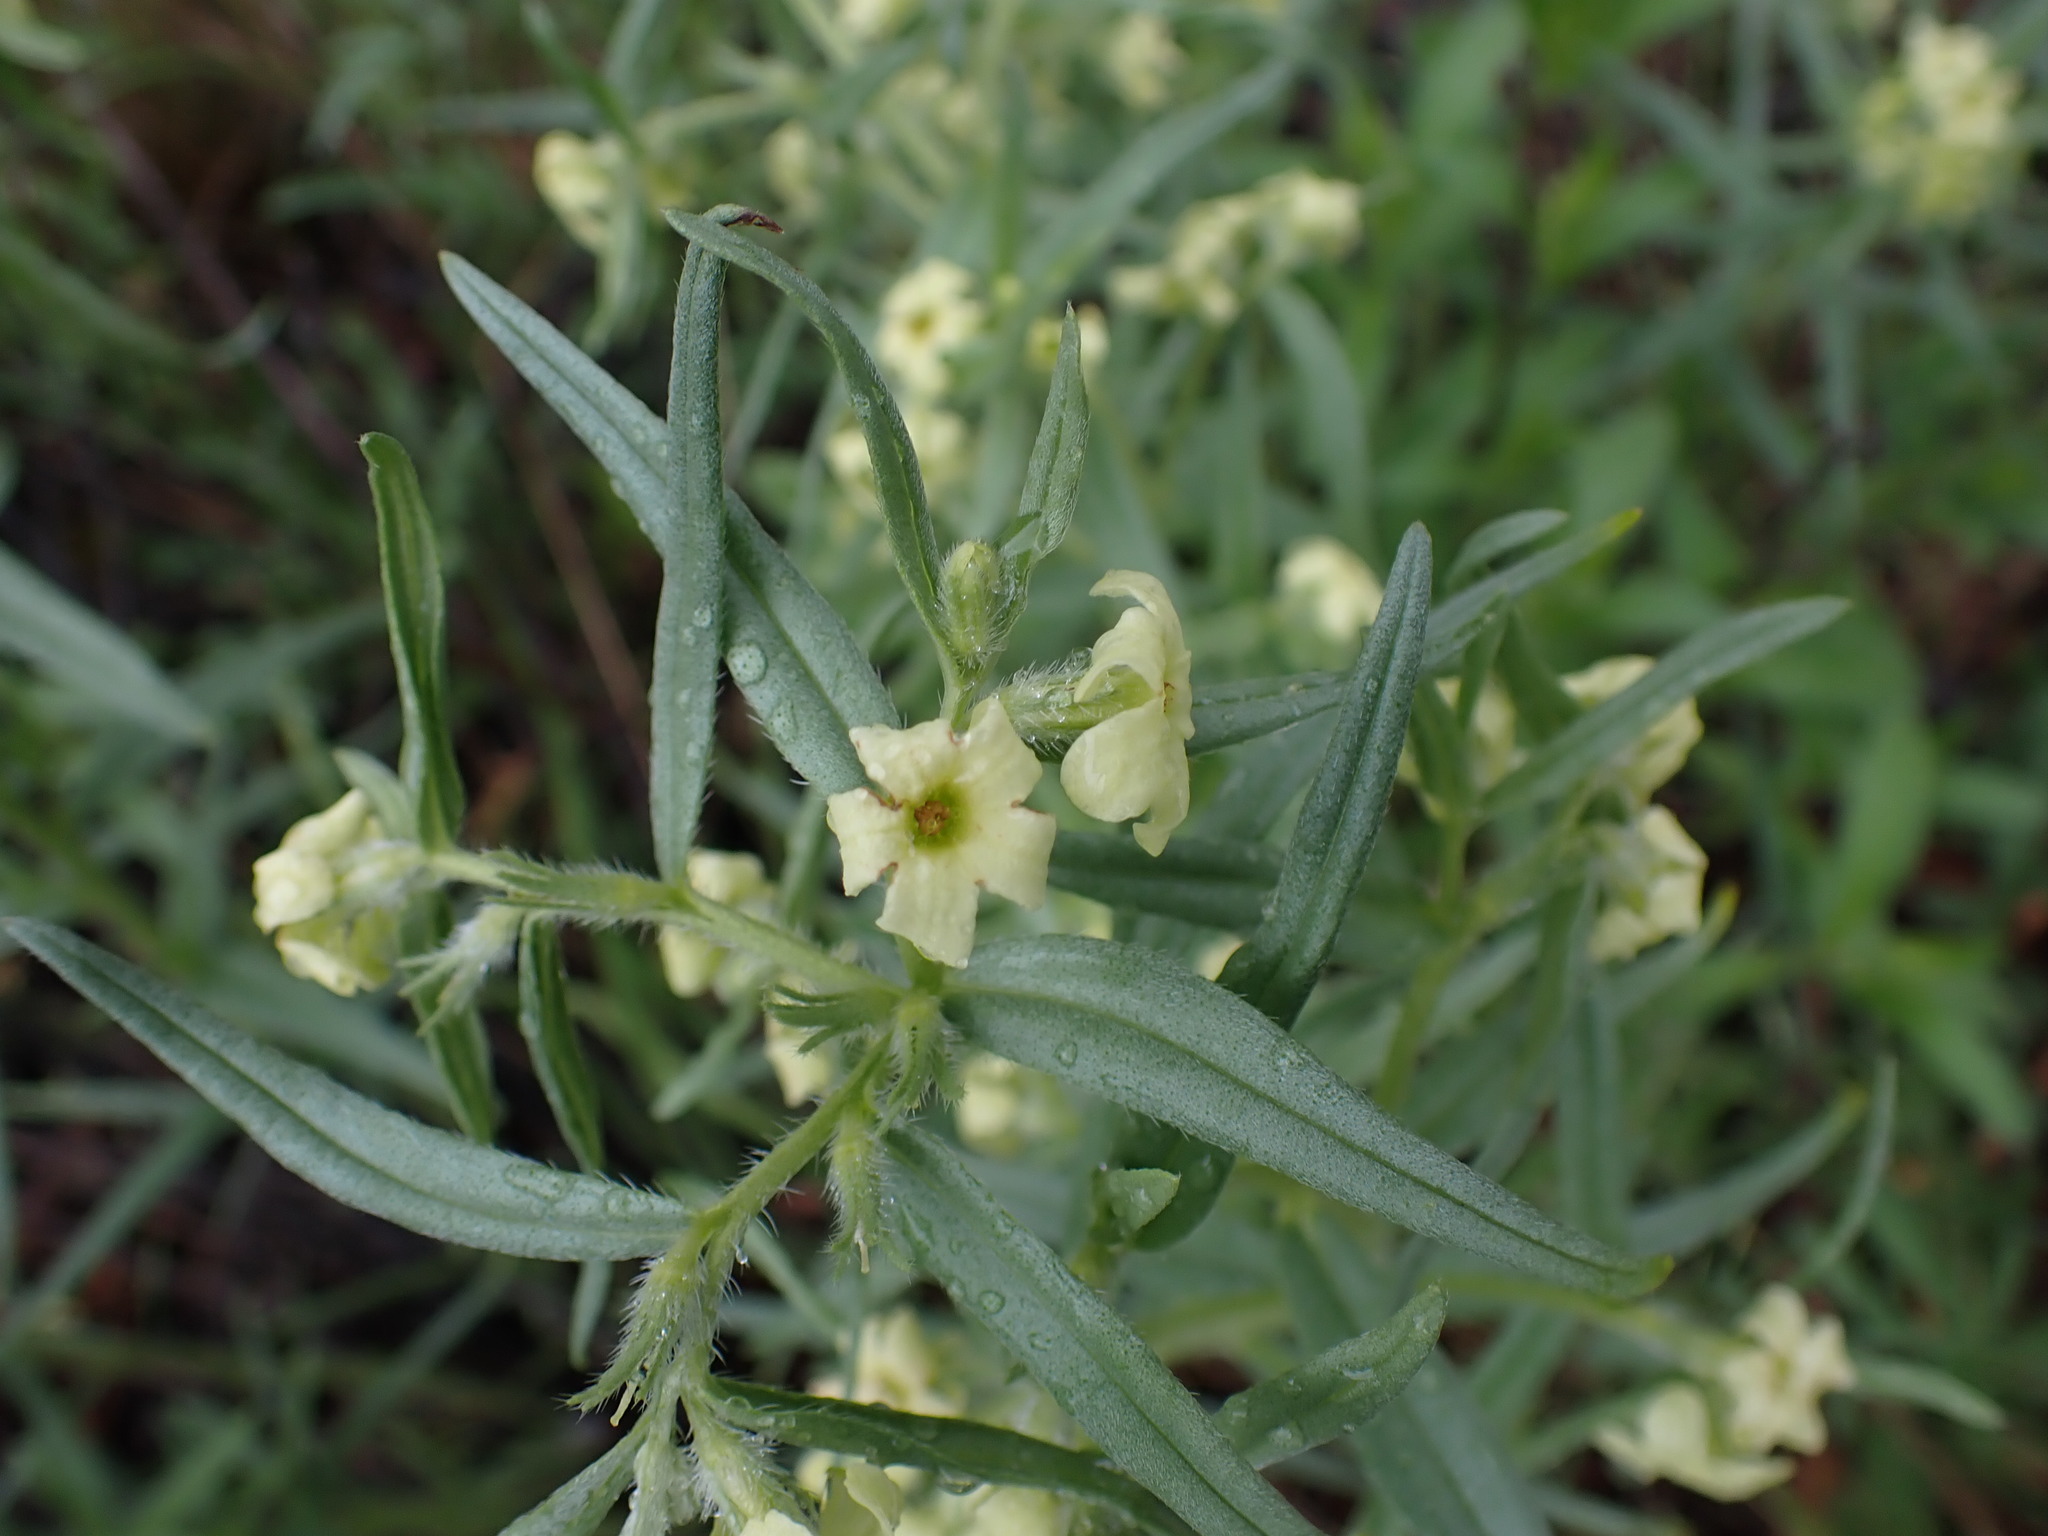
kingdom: Plantae
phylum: Tracheophyta
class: Magnoliopsida
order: Boraginales
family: Boraginaceae
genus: Lithospermum
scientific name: Lithospermum ruderale
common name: Western gromwell
